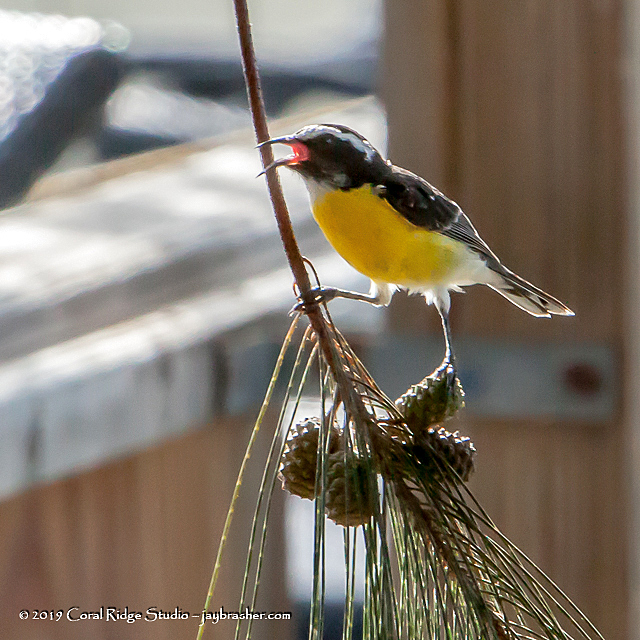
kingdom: Animalia
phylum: Chordata
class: Aves
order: Passeriformes
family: Thraupidae
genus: Coereba
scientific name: Coereba flaveola
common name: Bananaquit
